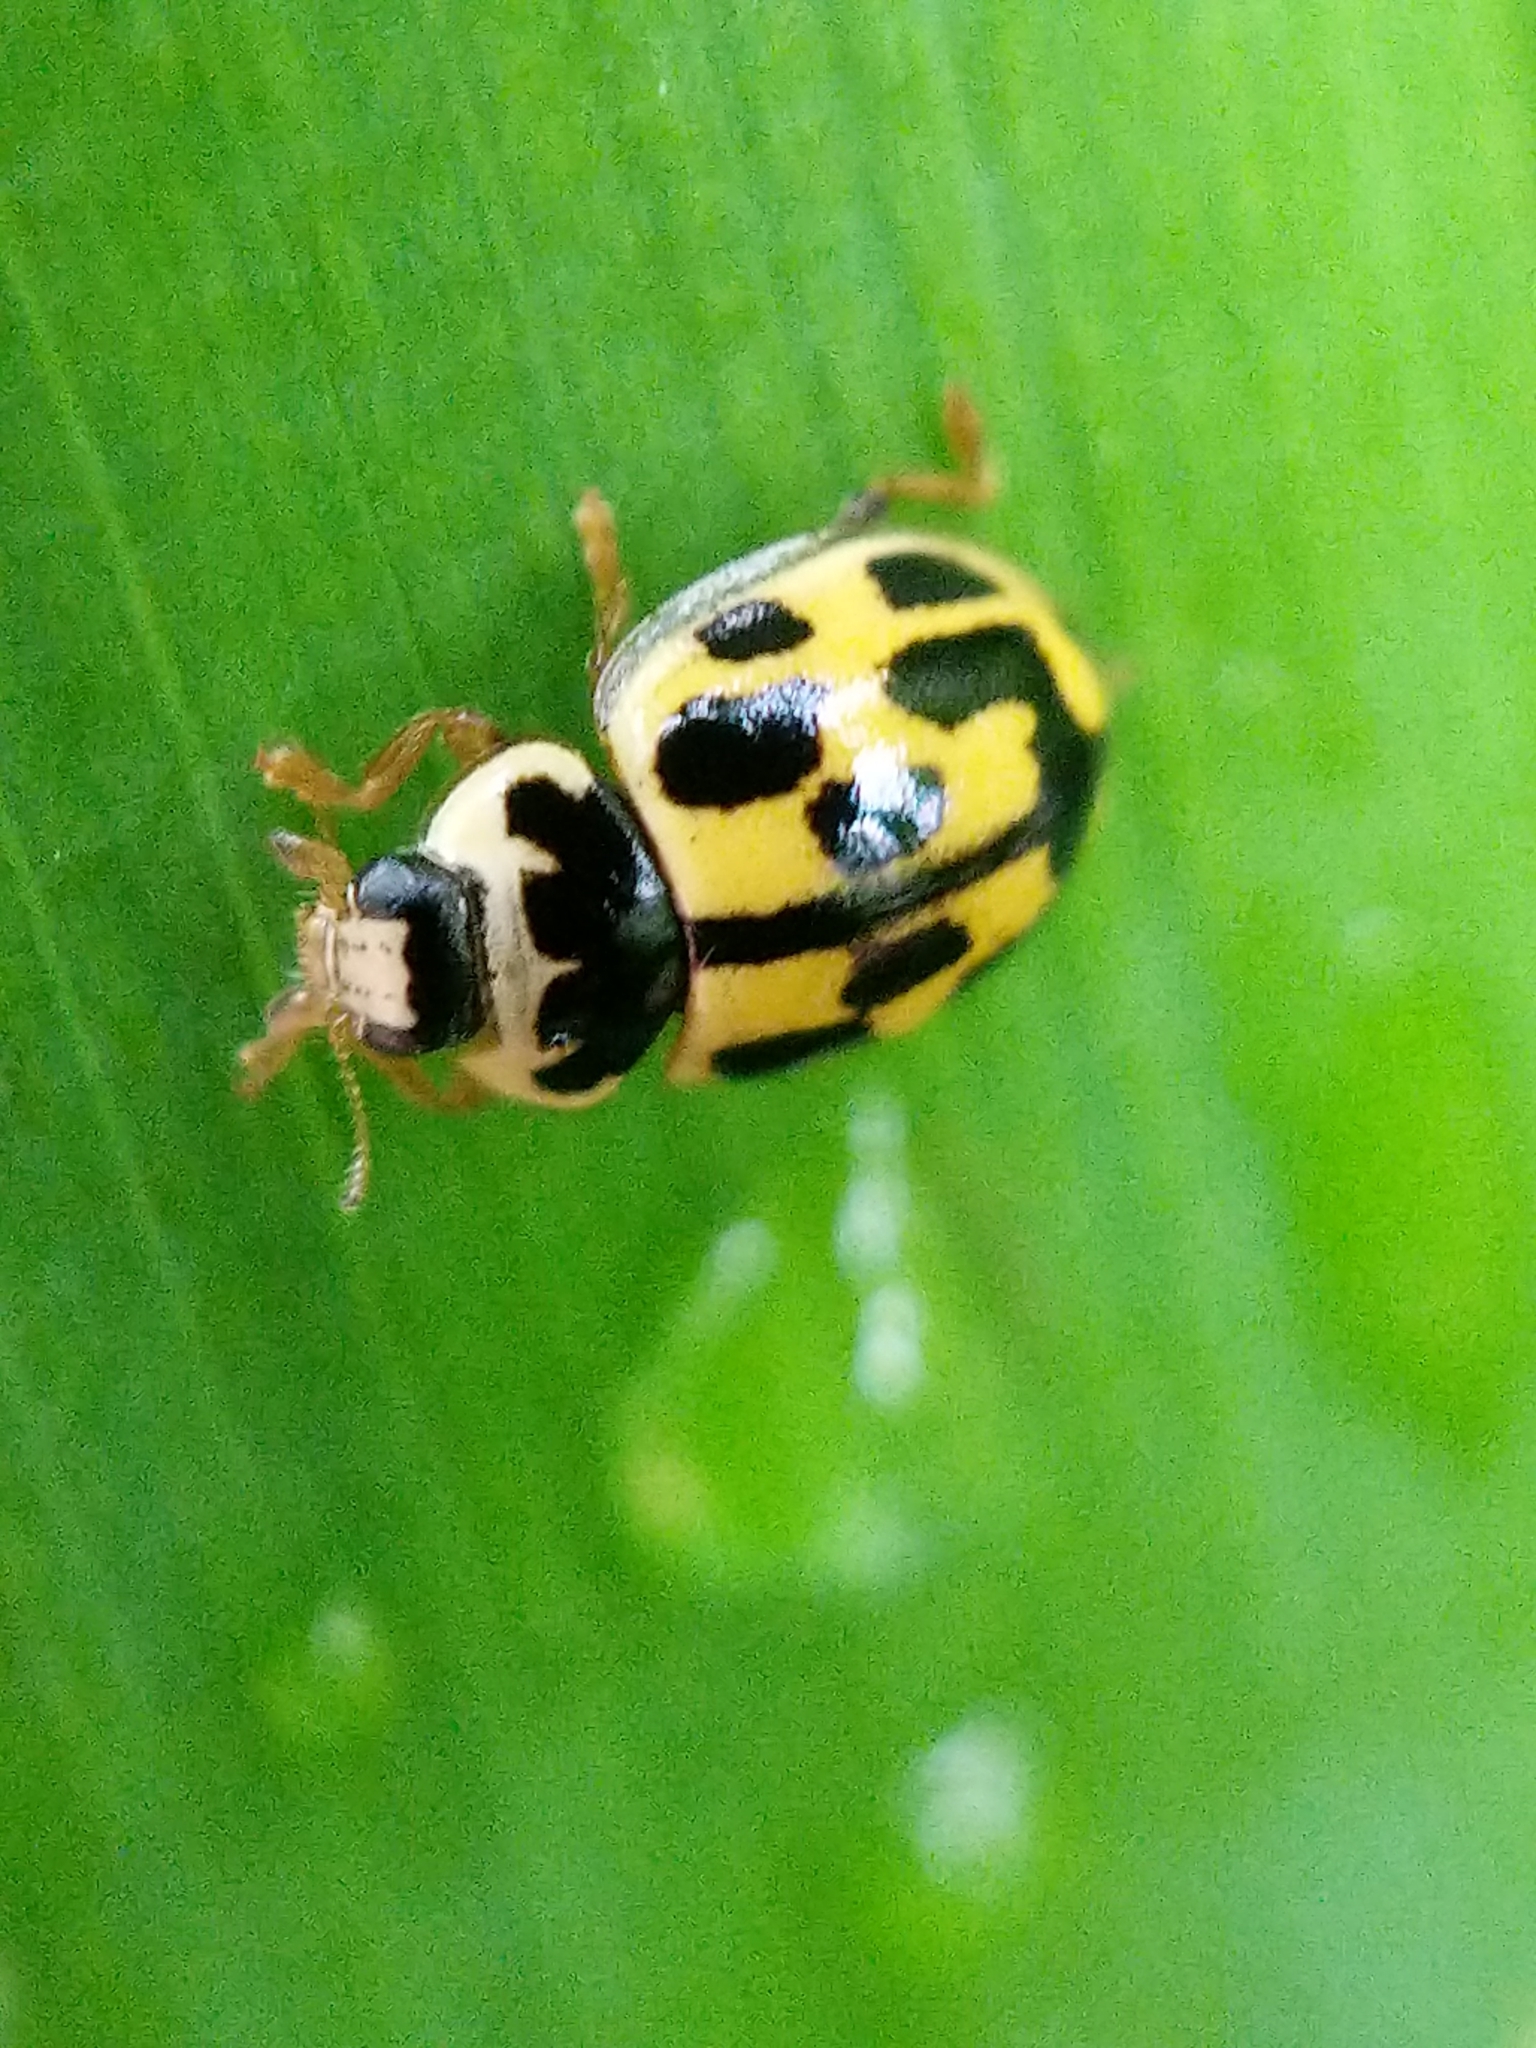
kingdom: Animalia
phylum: Arthropoda
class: Insecta
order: Coleoptera
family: Coccinellidae
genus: Propylaea
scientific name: Propylaea quatuordecimpunctata
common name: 14-spotted ladybird beetle
